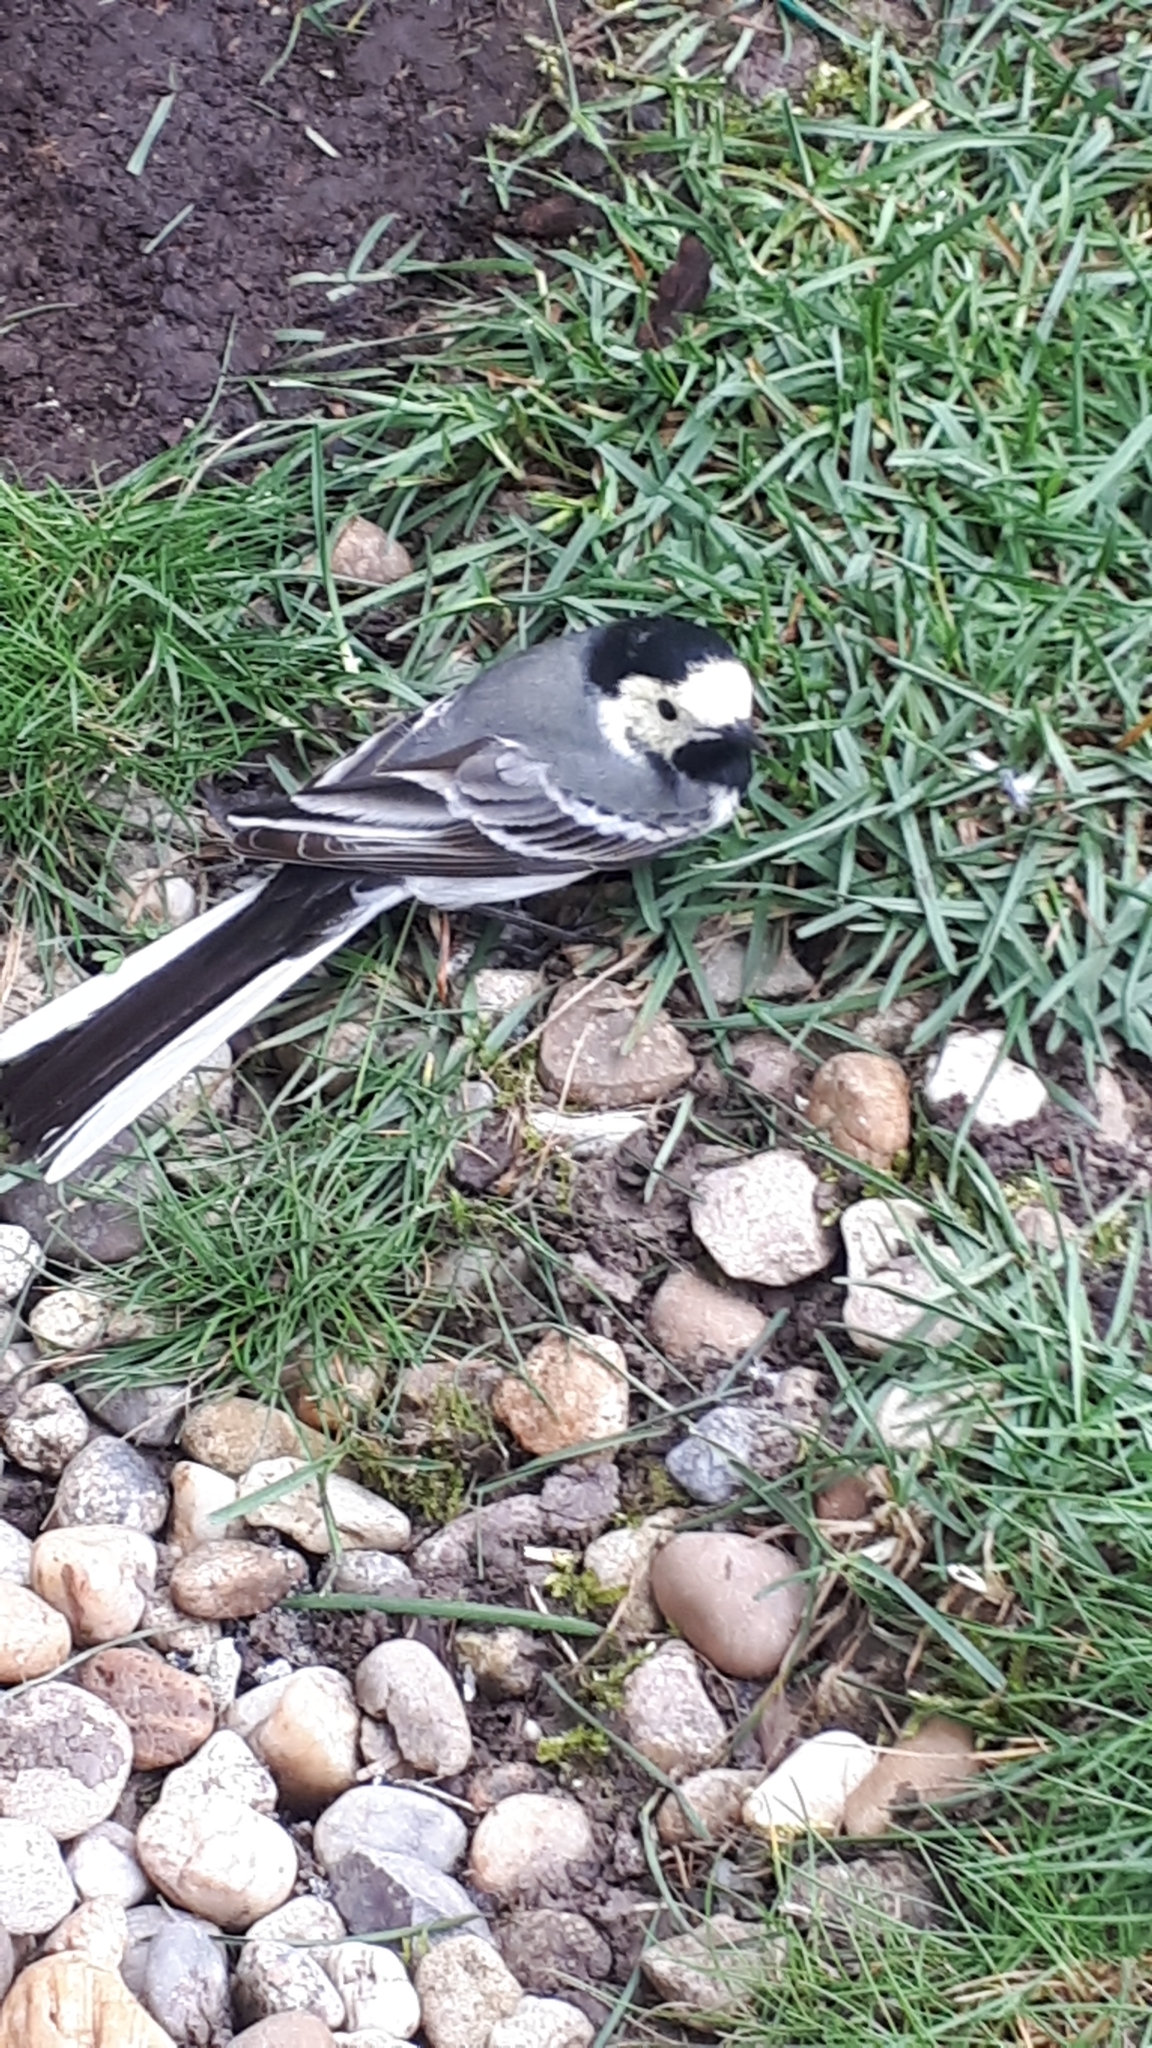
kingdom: Animalia
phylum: Chordata
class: Aves
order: Passeriformes
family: Motacillidae
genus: Motacilla
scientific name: Motacilla alba
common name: White wagtail
